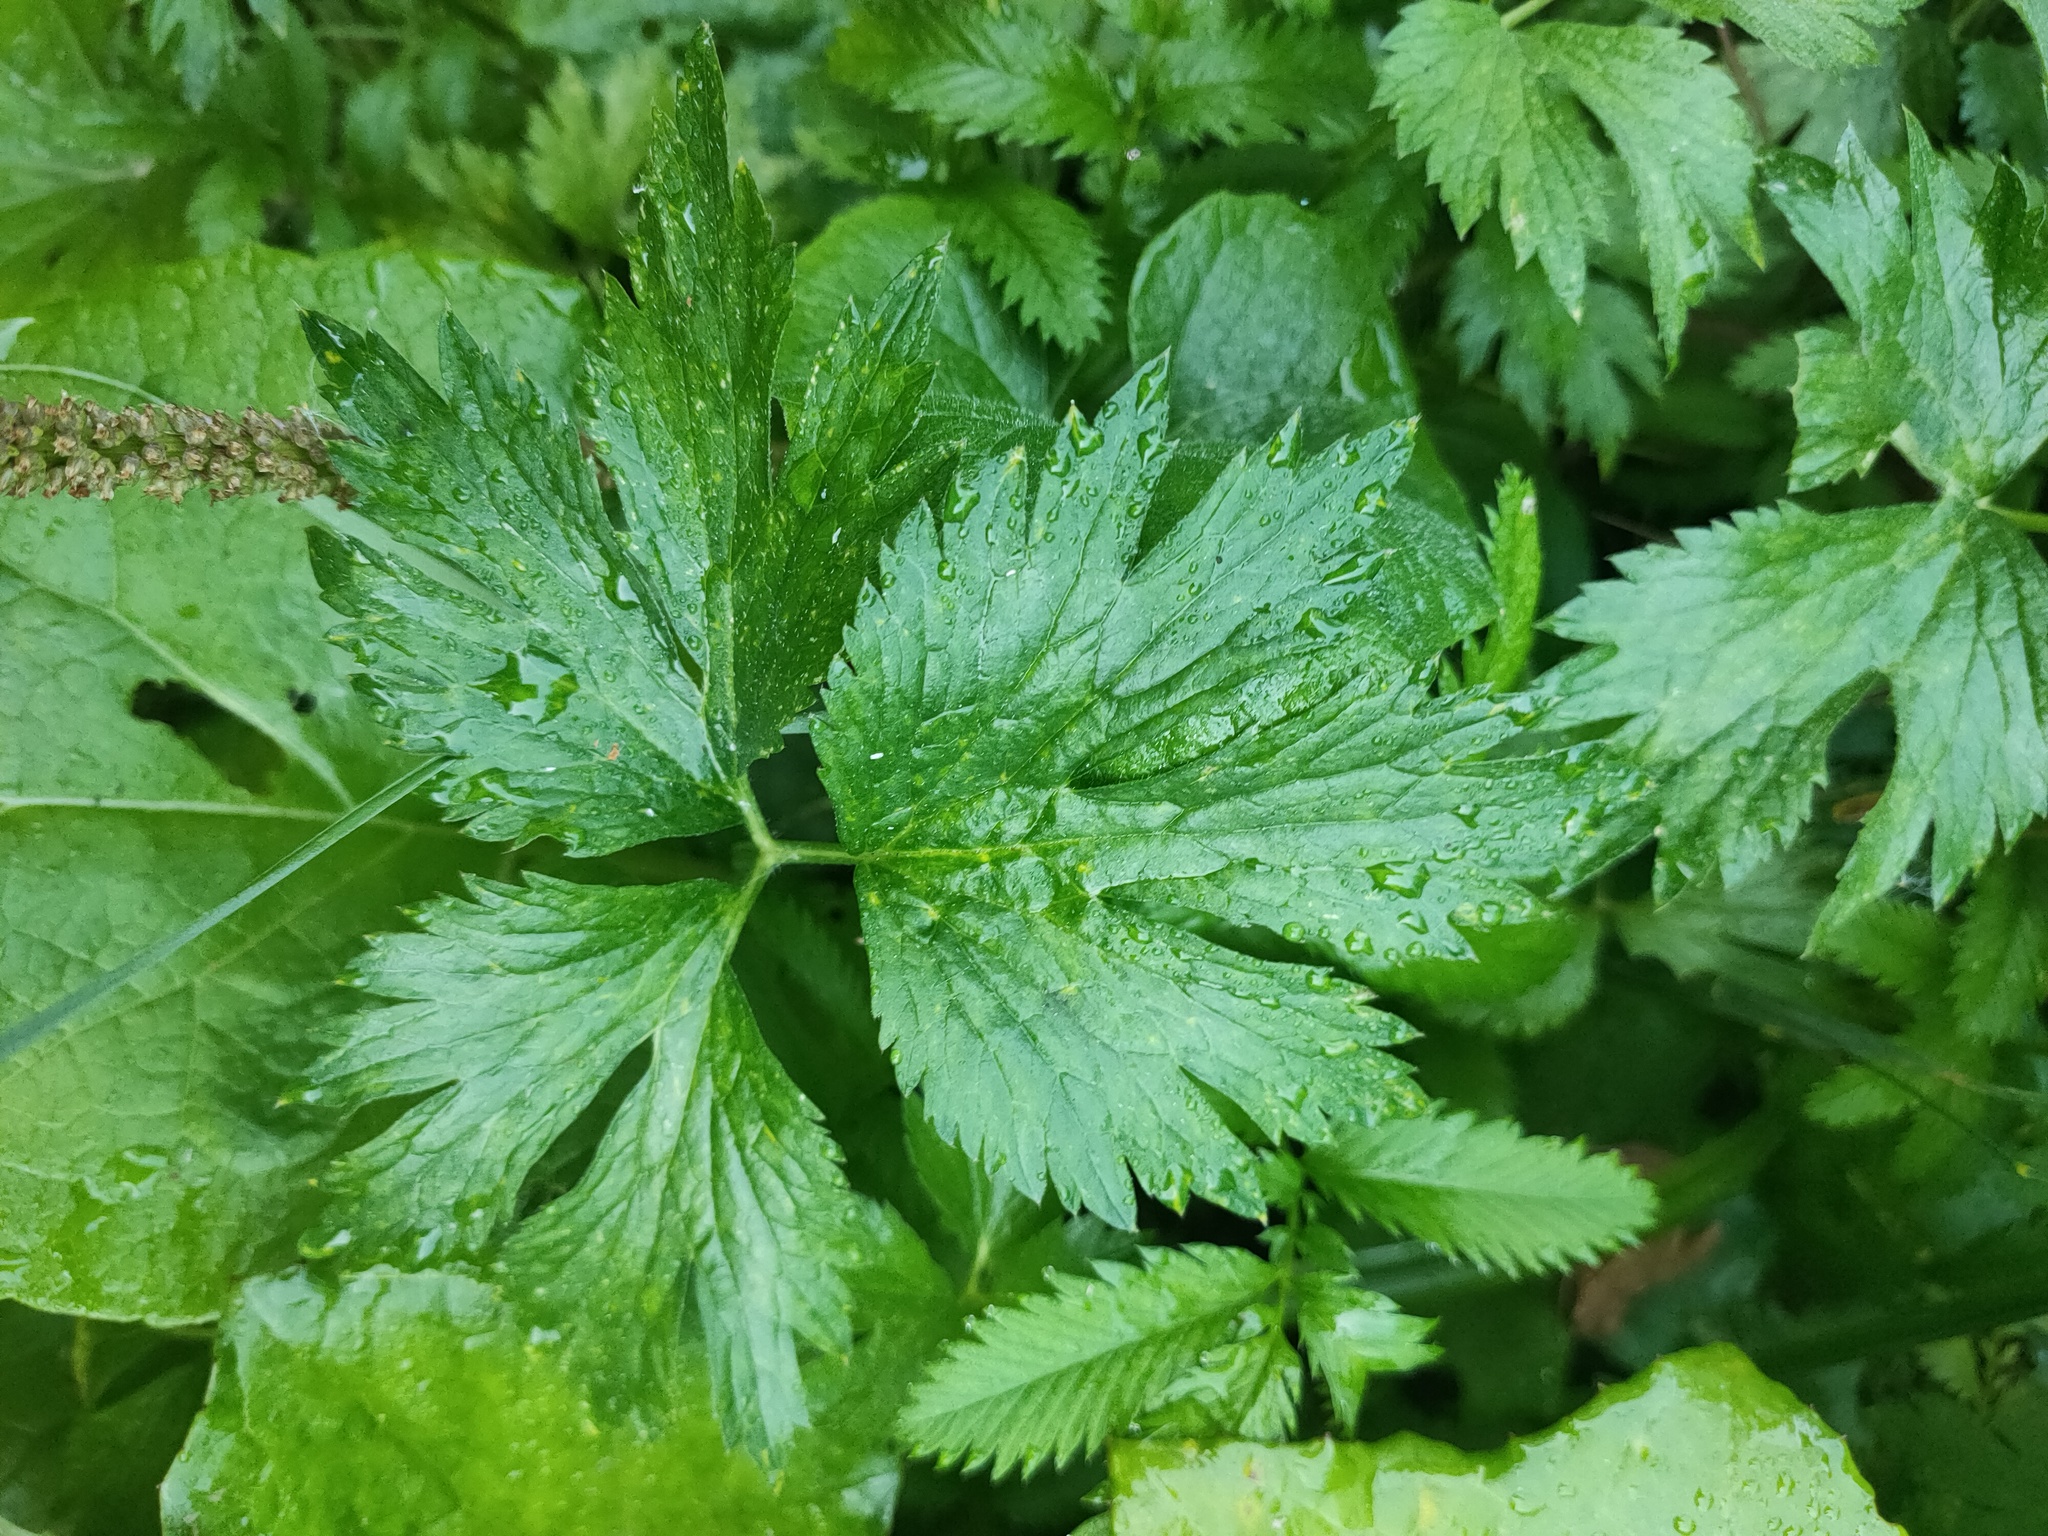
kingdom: Plantae
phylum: Tracheophyta
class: Magnoliopsida
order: Ranunculales
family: Ranunculaceae
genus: Ranunculus
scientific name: Ranunculus repens
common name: Creeping buttercup
